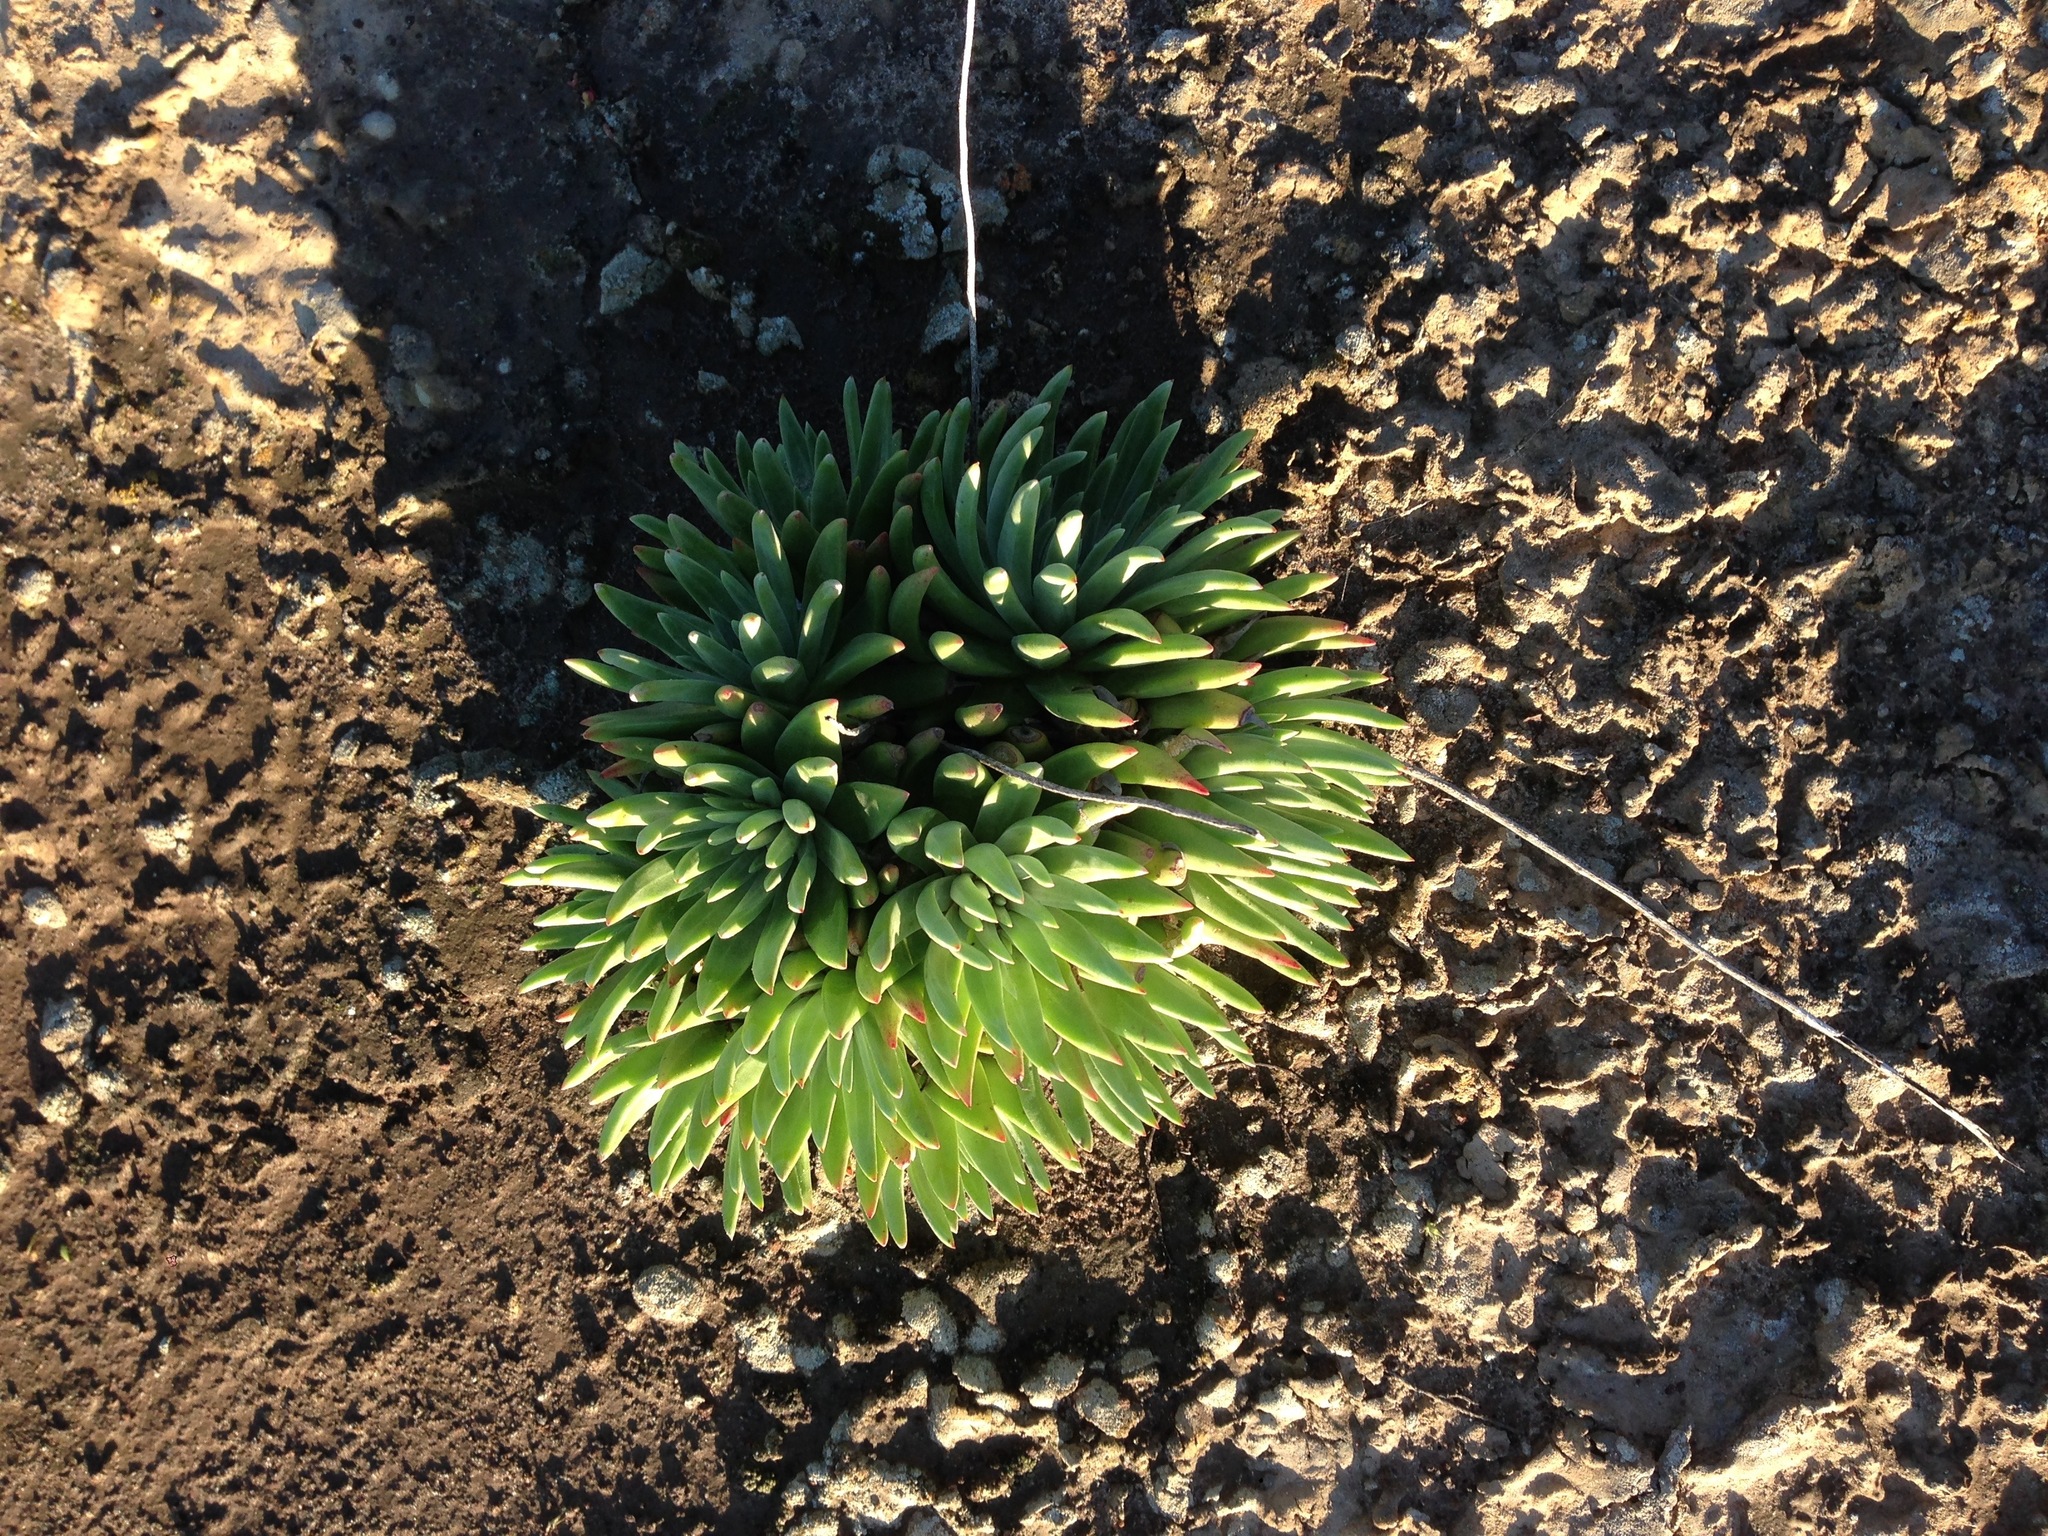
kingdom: Plantae
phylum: Tracheophyta
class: Magnoliopsida
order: Saxifragales
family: Crassulaceae
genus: Dudleya
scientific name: Dudleya virens
